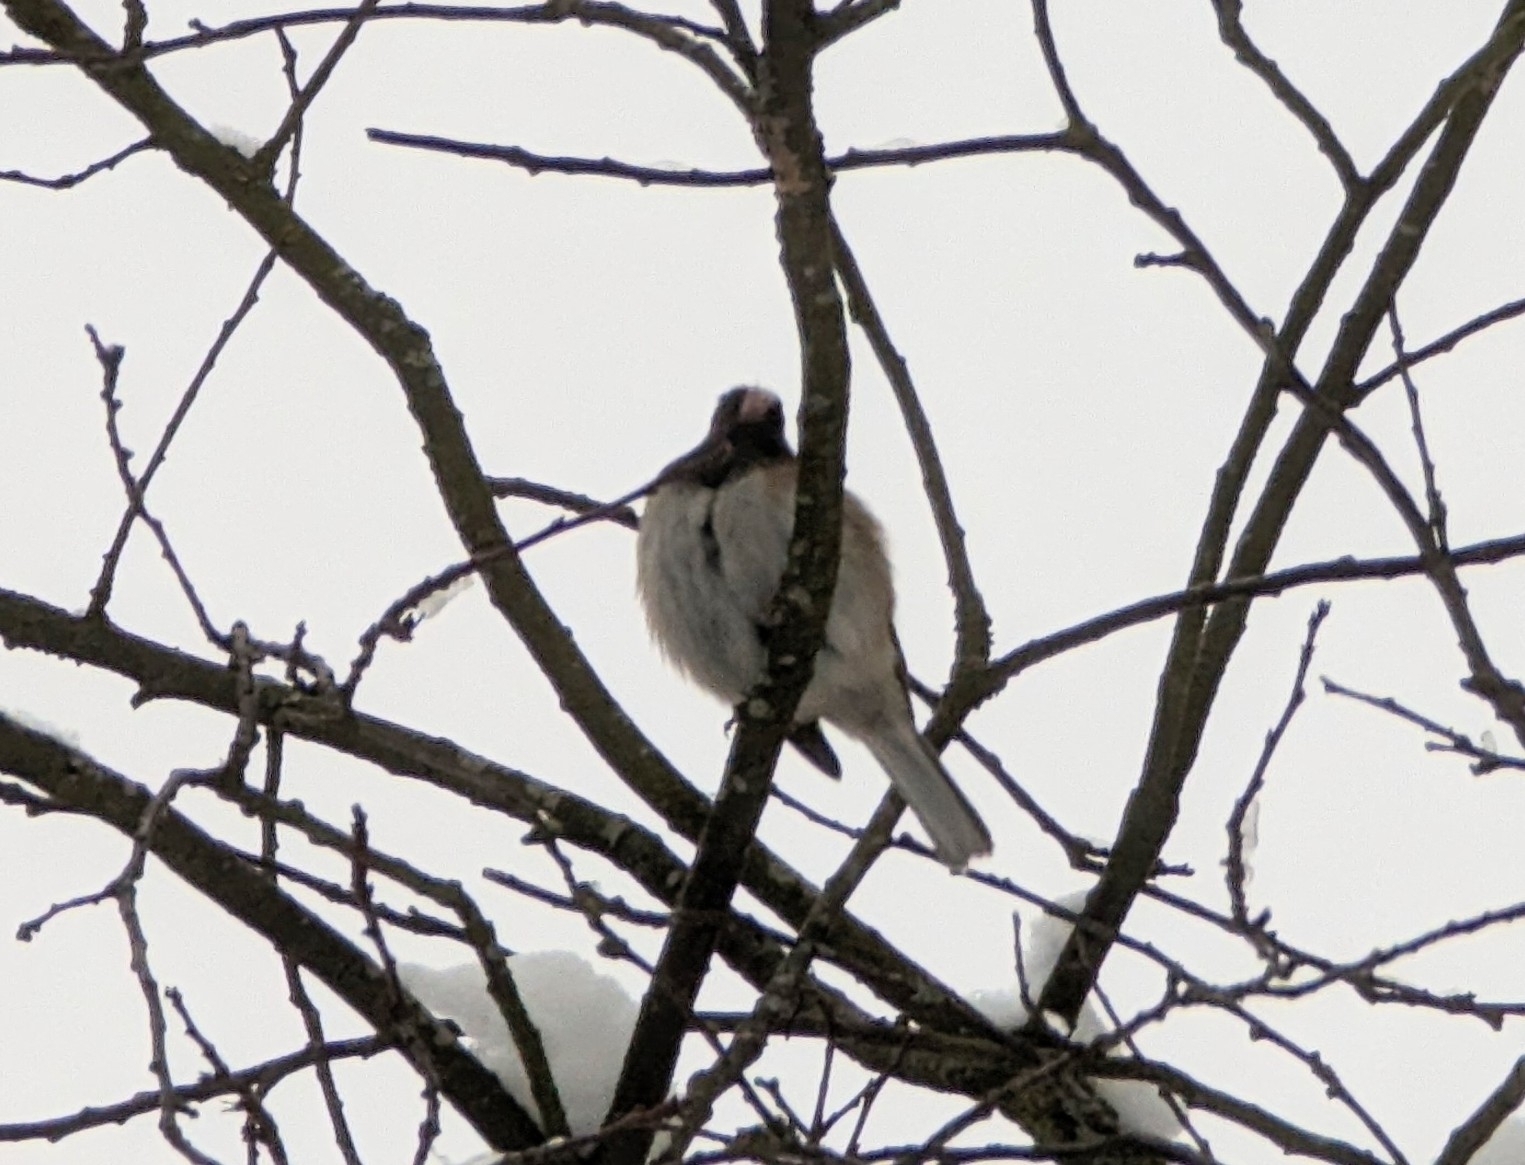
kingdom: Animalia
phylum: Chordata
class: Aves
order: Passeriformes
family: Passerellidae
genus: Junco
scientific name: Junco hyemalis
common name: Dark-eyed junco
